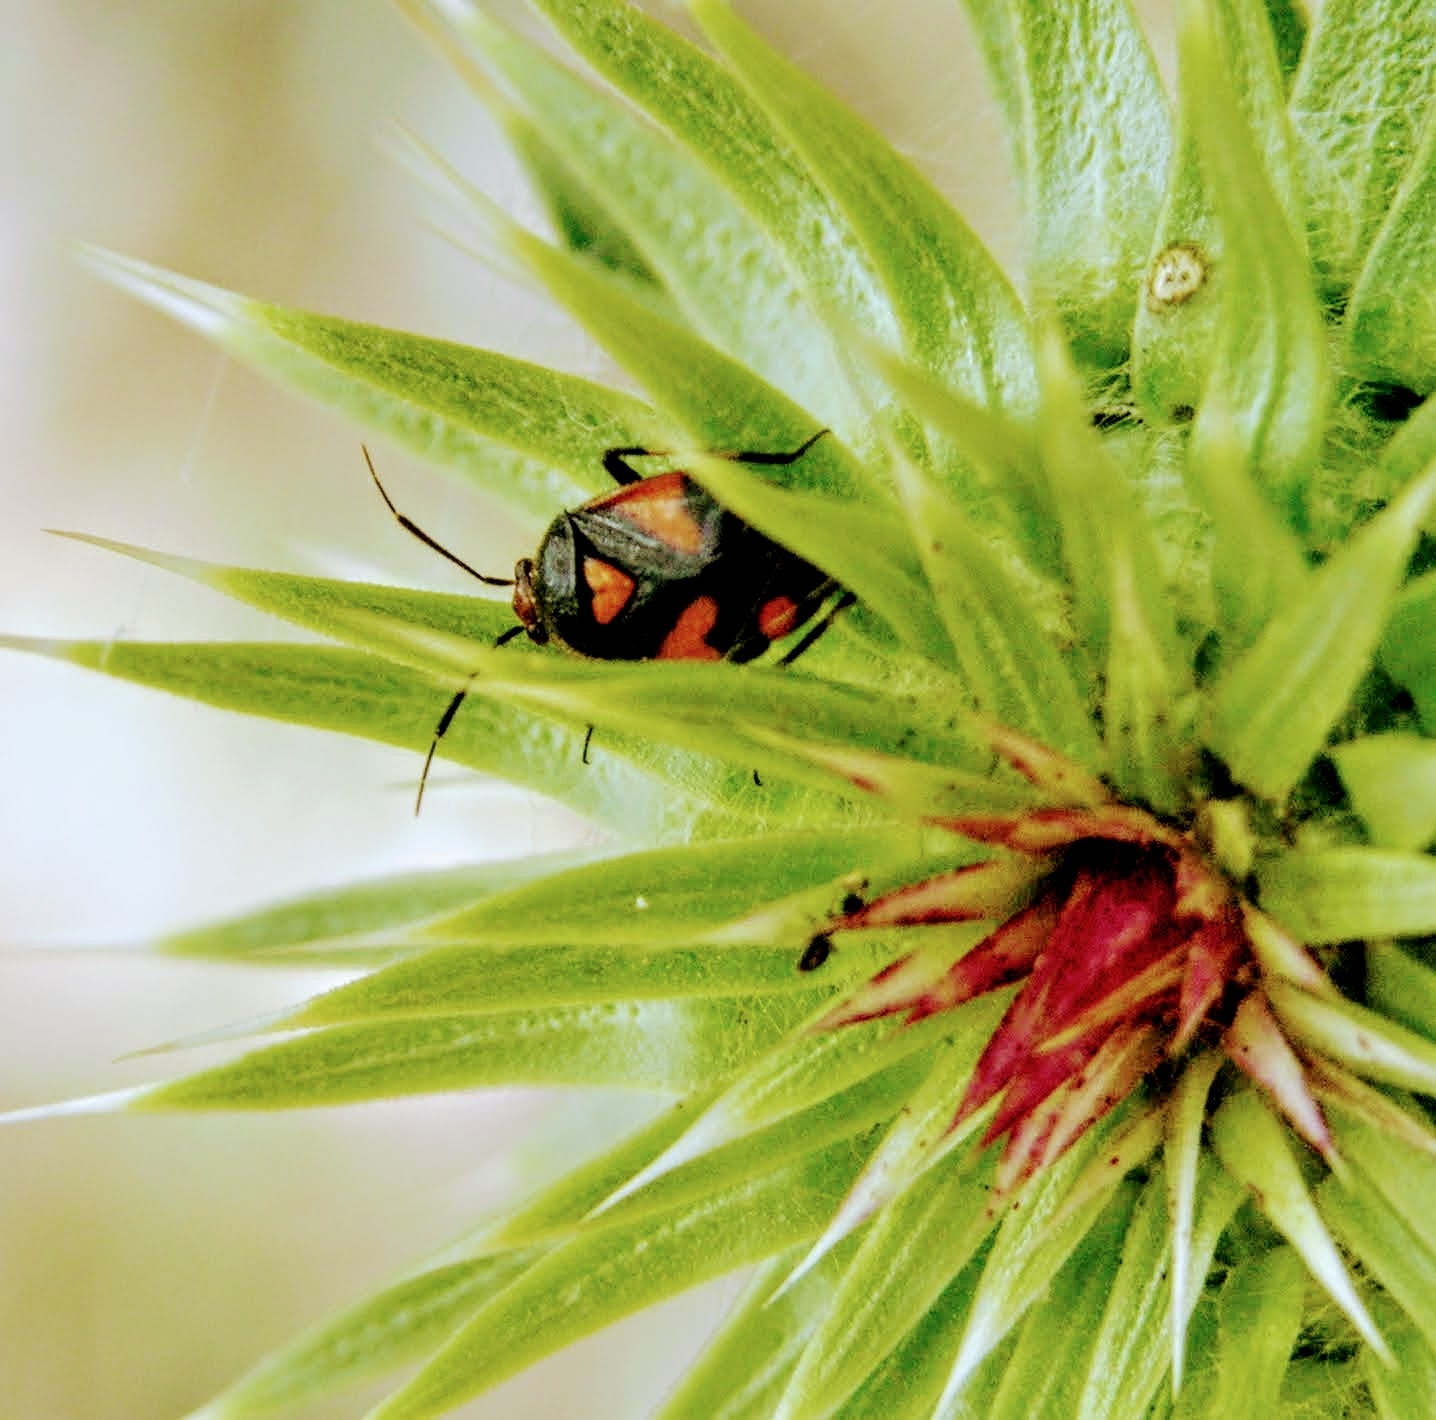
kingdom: Animalia
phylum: Arthropoda
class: Insecta
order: Hemiptera
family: Miridae
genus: Deraeocoris
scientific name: Deraeocoris schach
